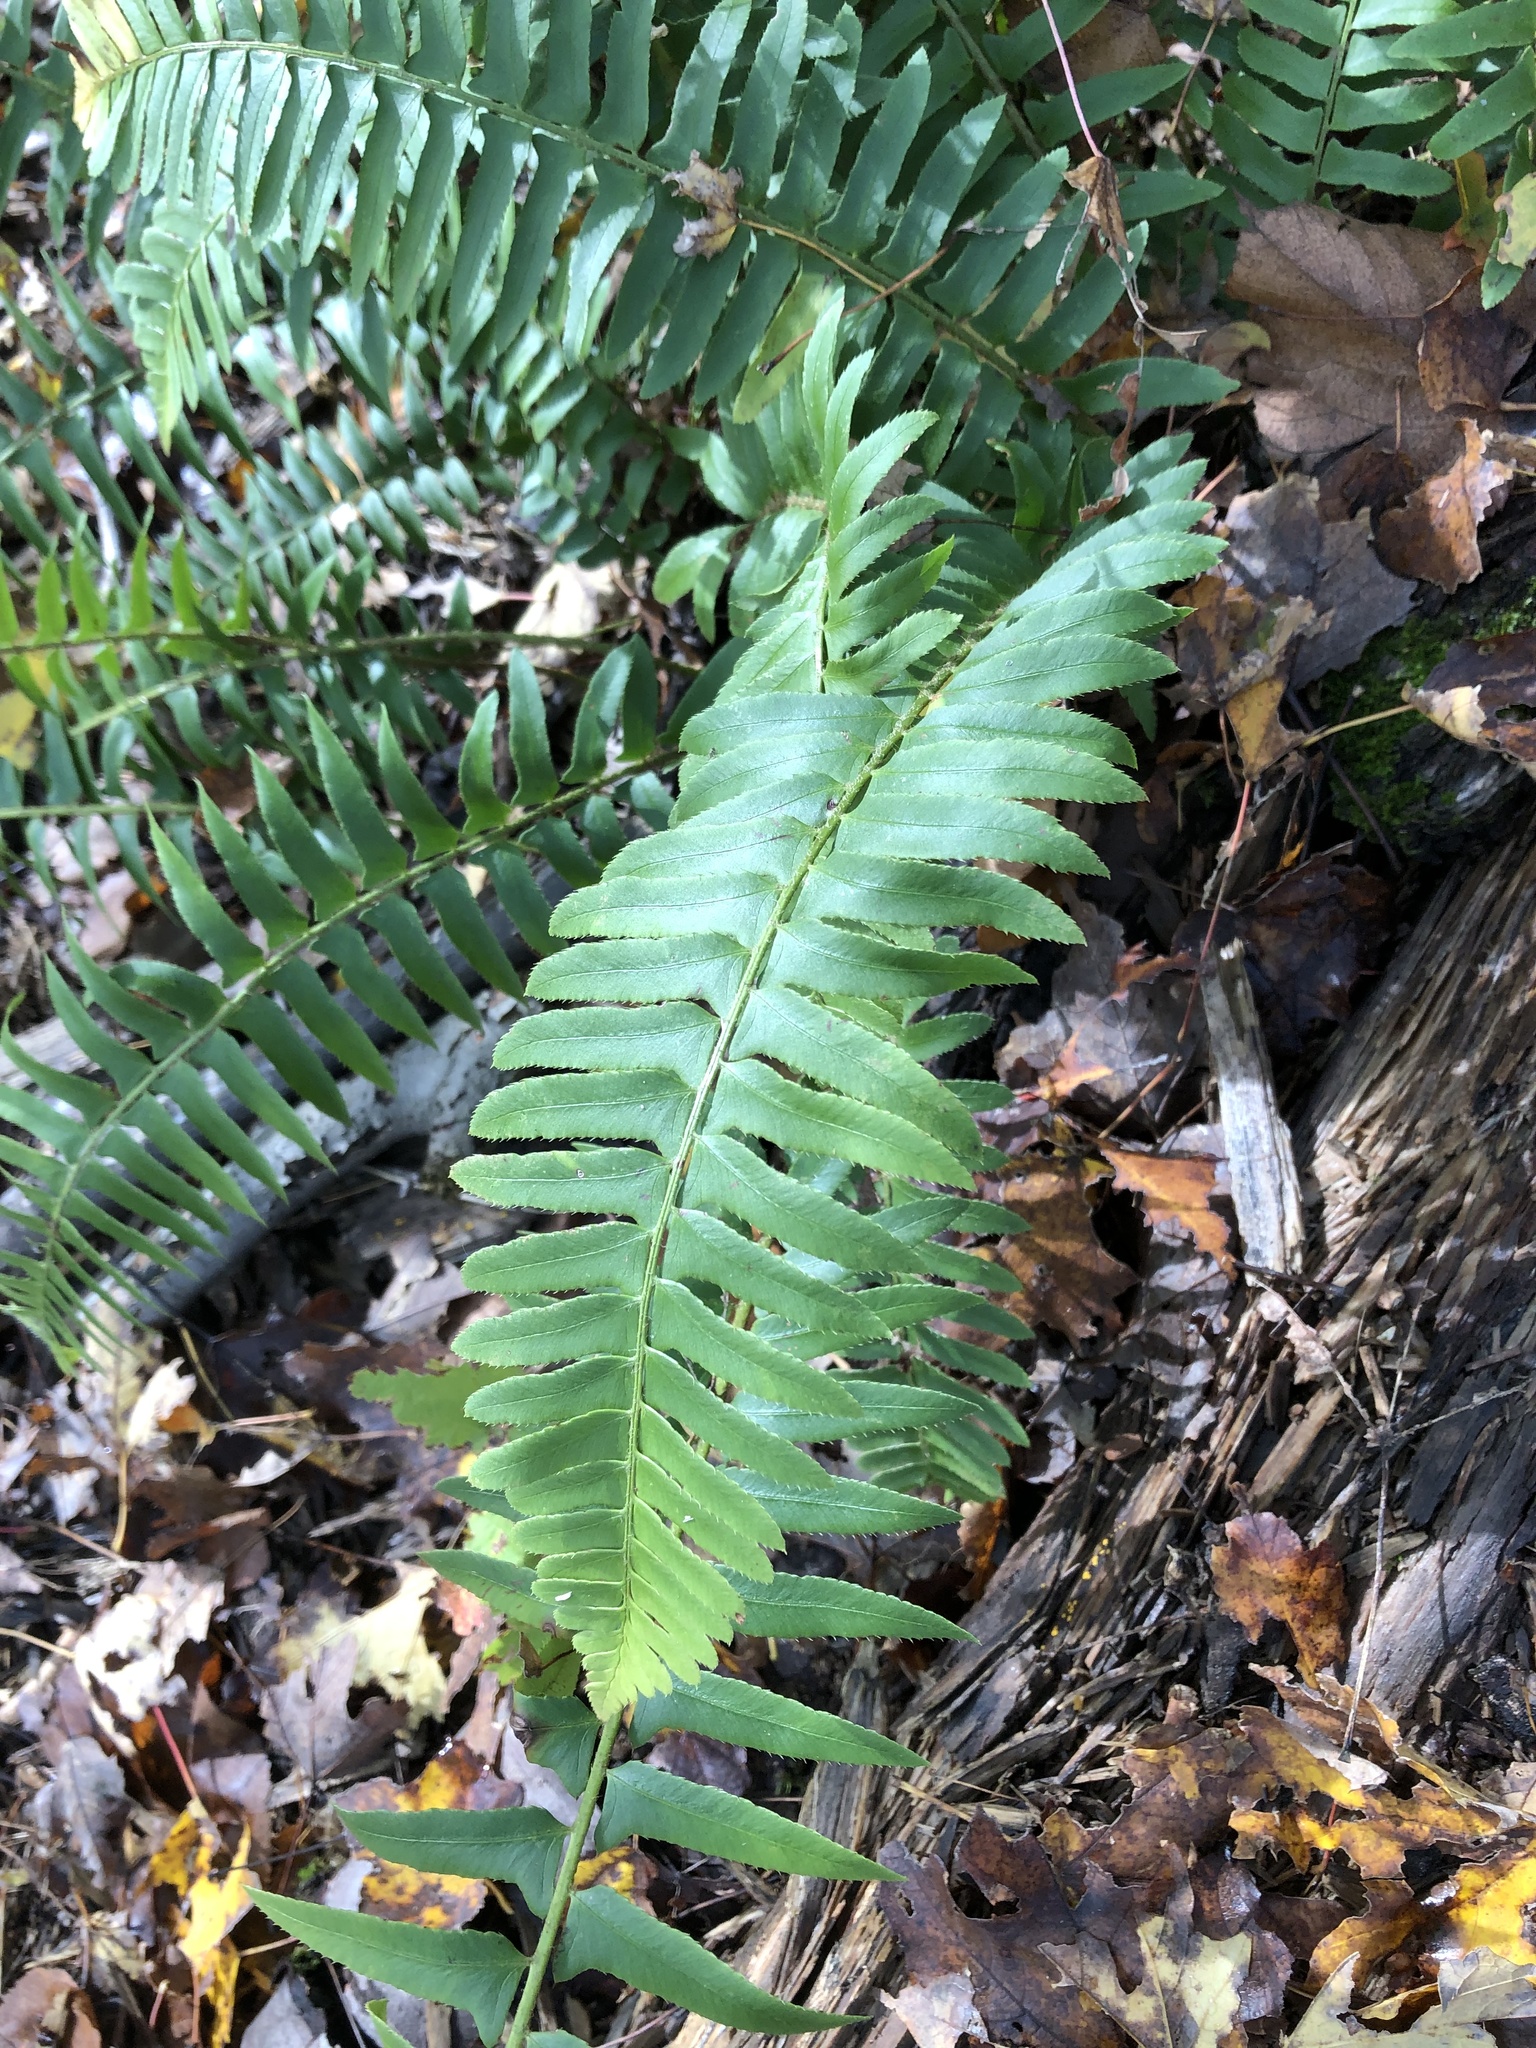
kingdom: Plantae
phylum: Tracheophyta
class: Polypodiopsida
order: Polypodiales
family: Dryopteridaceae
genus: Polystichum
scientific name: Polystichum acrostichoides
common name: Christmas fern
